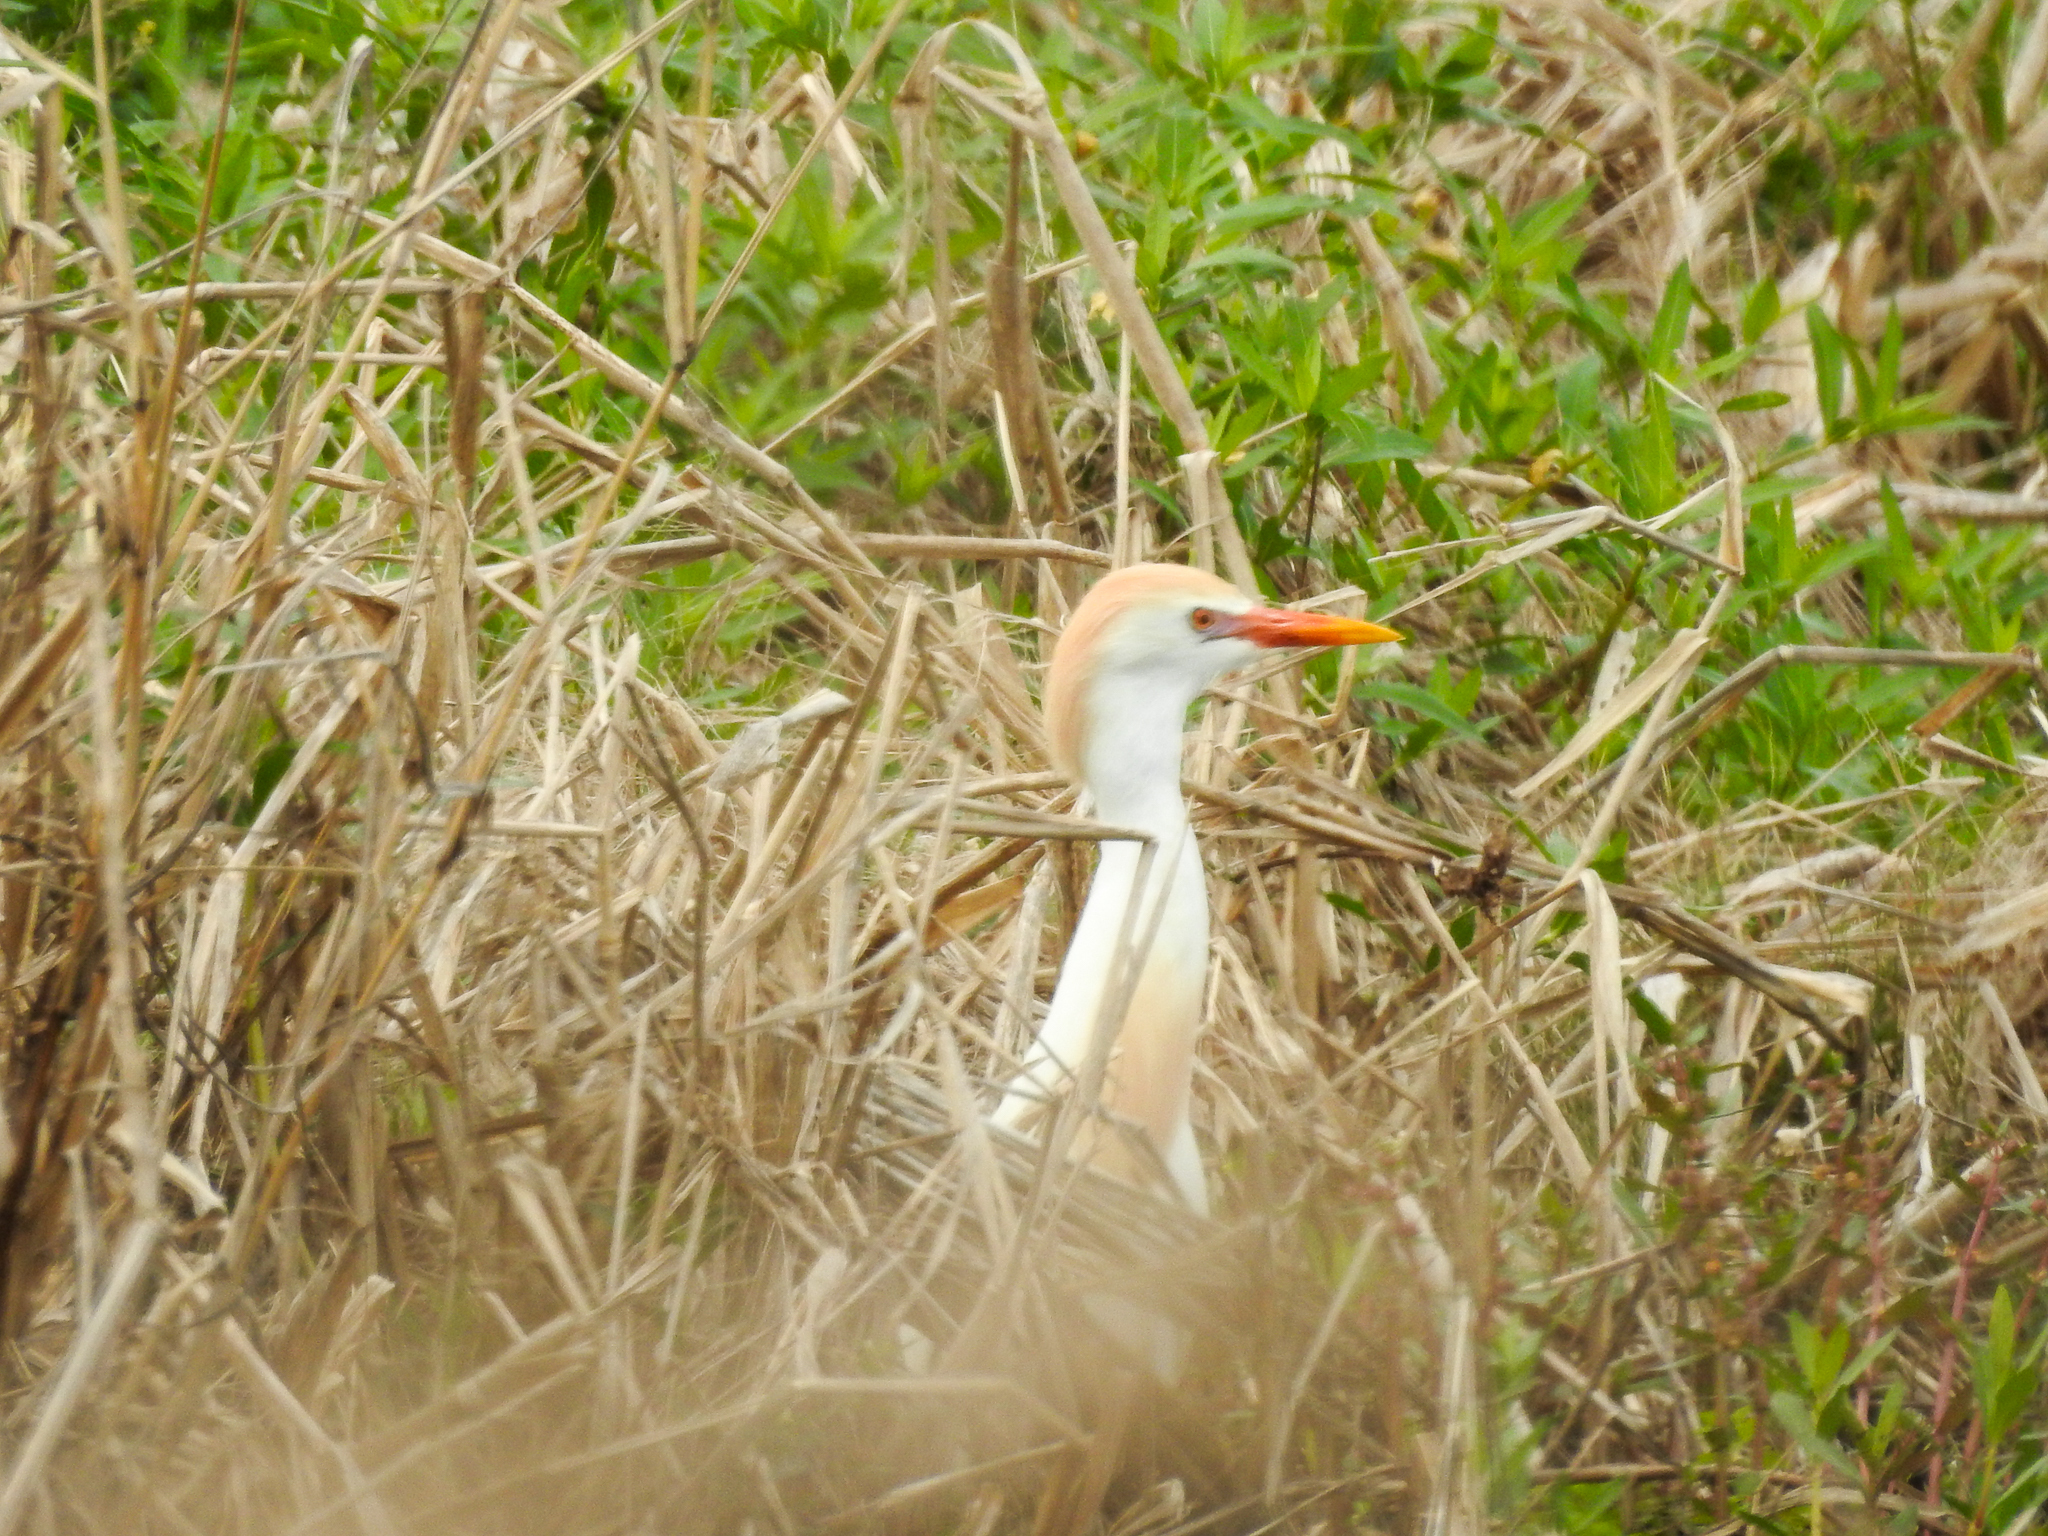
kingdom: Animalia
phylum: Chordata
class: Aves
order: Pelecaniformes
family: Ardeidae
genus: Bubulcus
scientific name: Bubulcus ibis
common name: Cattle egret
